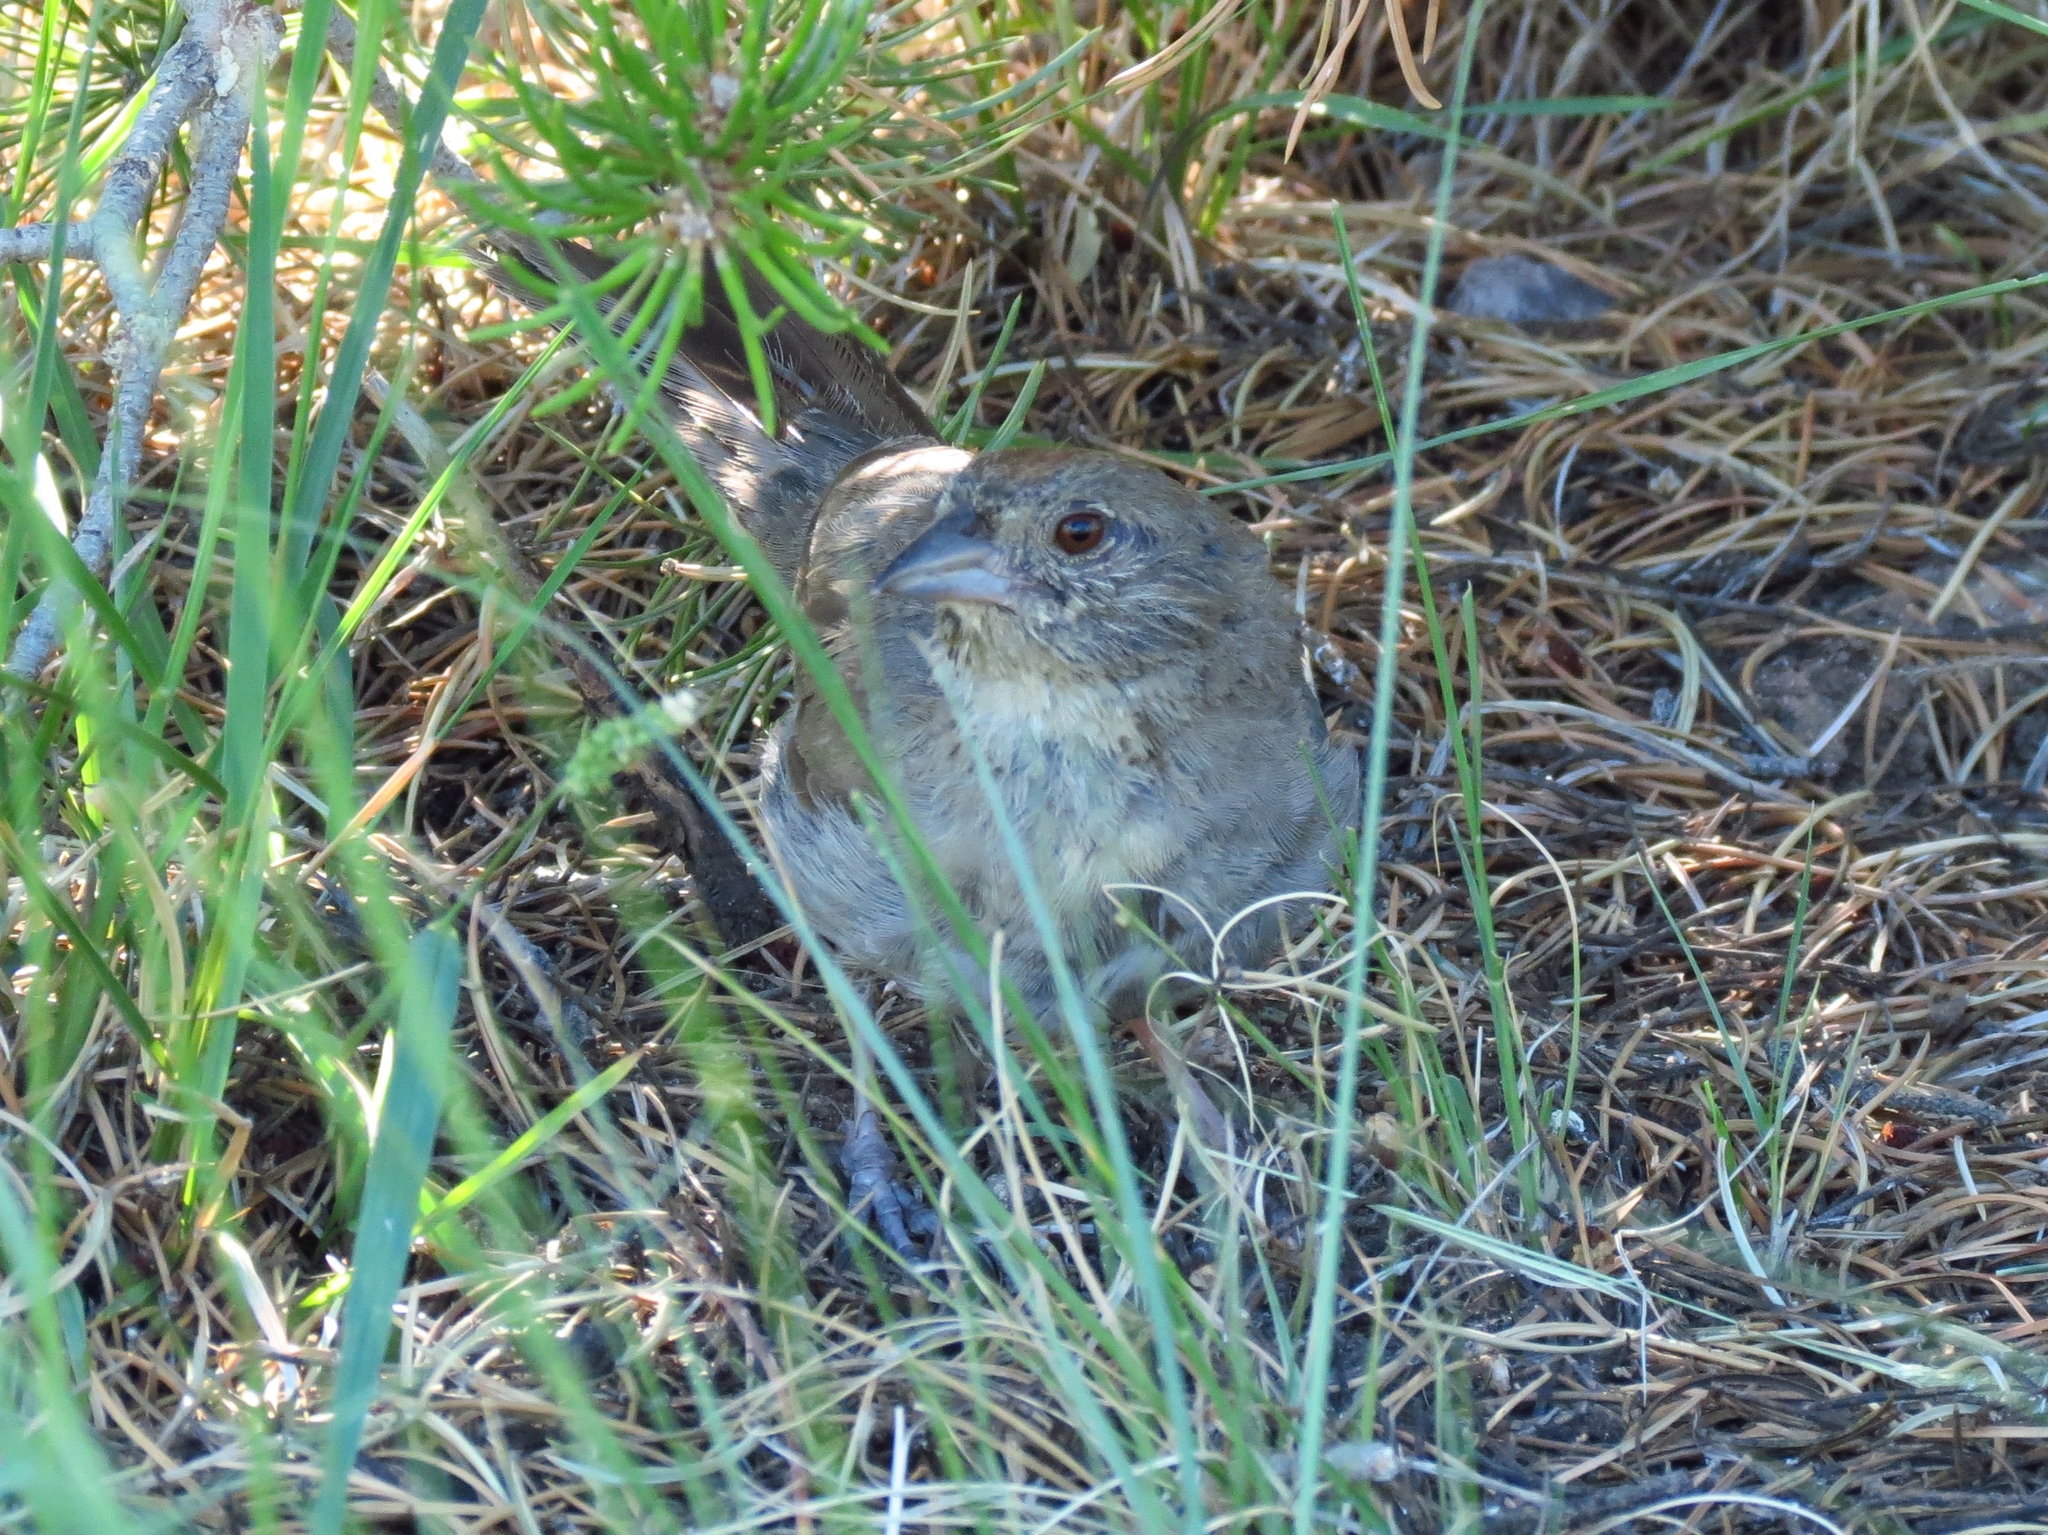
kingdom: Animalia
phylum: Chordata
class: Aves
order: Passeriformes
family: Passerellidae
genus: Melozone
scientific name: Melozone fusca
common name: Canyon towhee
